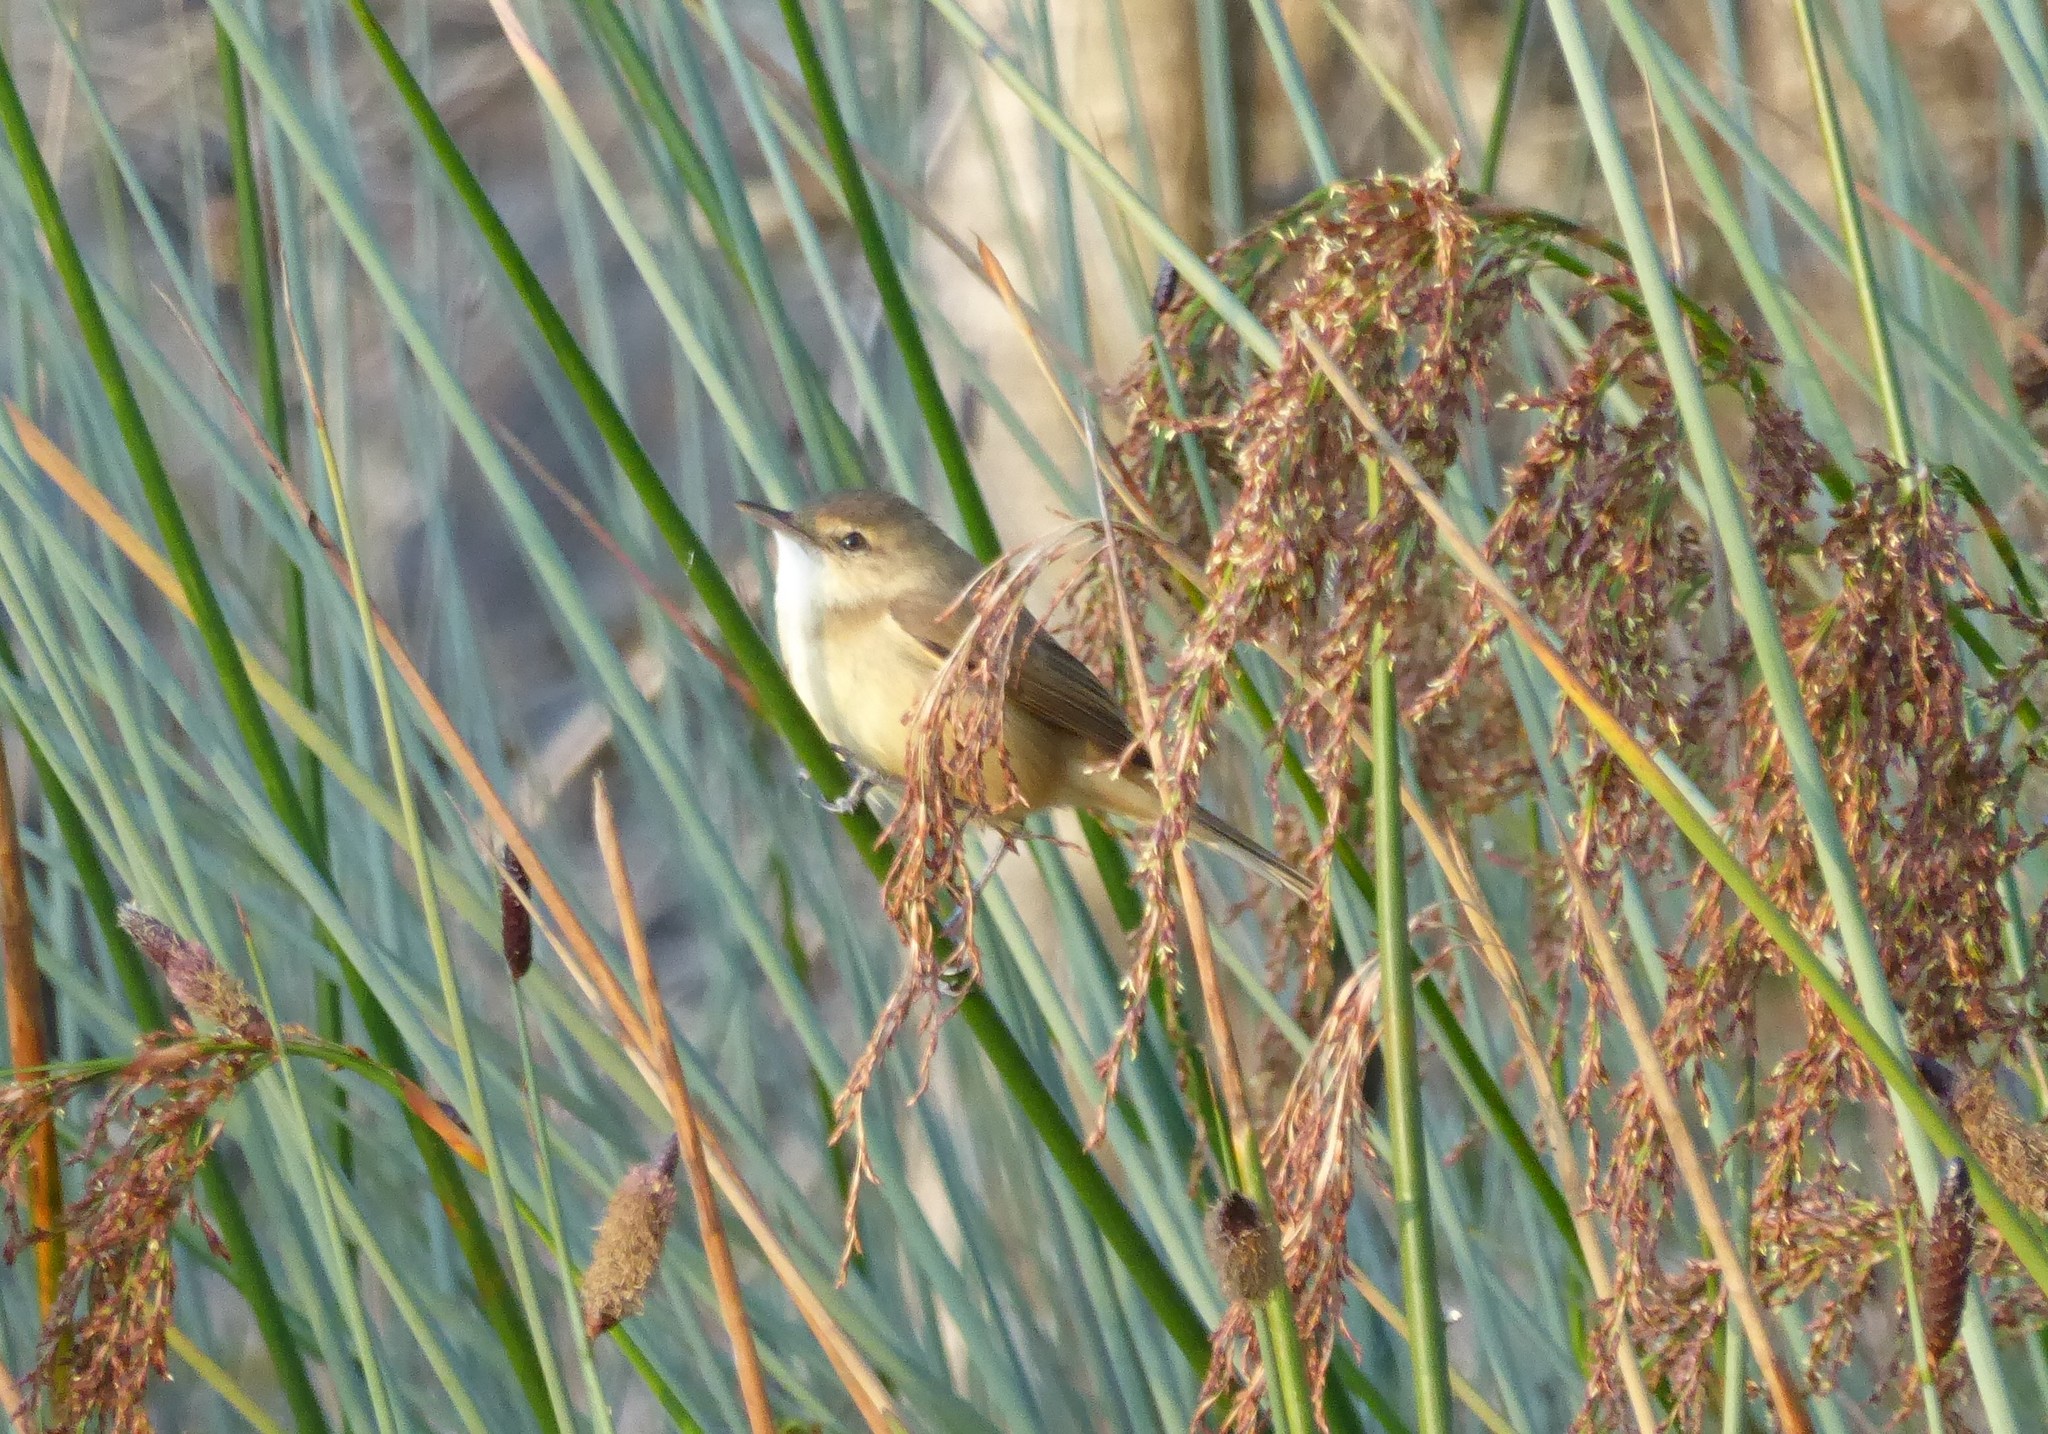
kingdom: Animalia
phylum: Chordata
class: Aves
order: Passeriformes
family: Acrocephalidae
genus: Acrocephalus
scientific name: Acrocephalus australis
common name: Australian reed warbler
